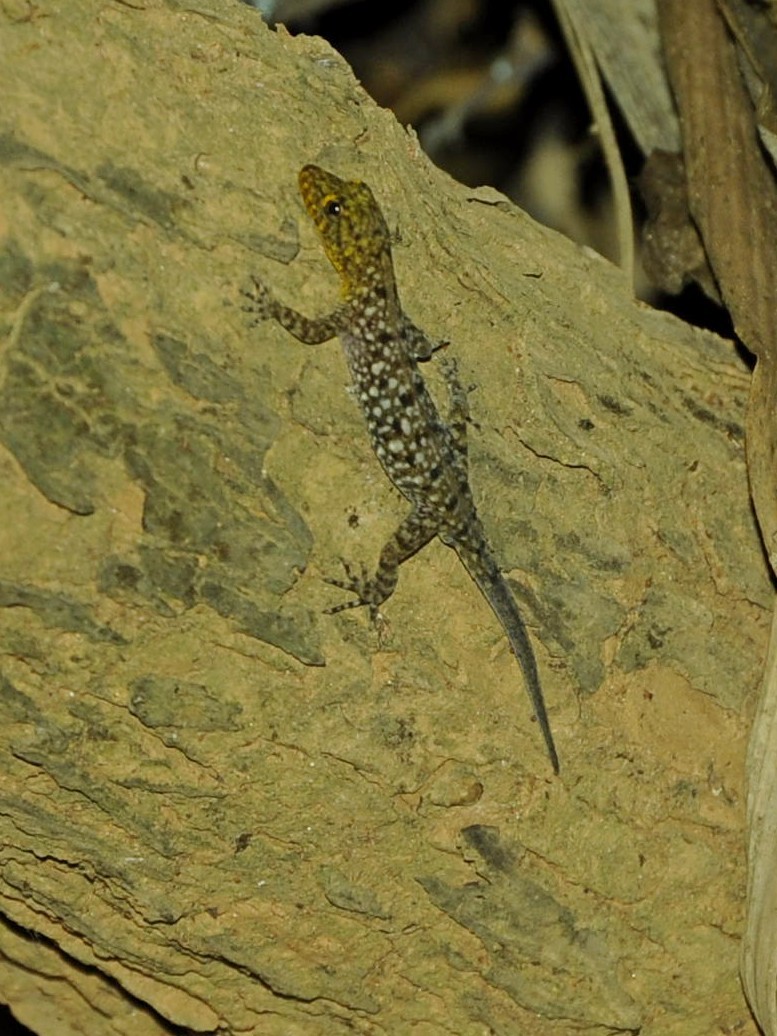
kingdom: Animalia
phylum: Chordata
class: Squamata
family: Gekkonidae
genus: Cnemaspis
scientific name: Cnemaspis mysoriensis
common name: Mysore day gecko
